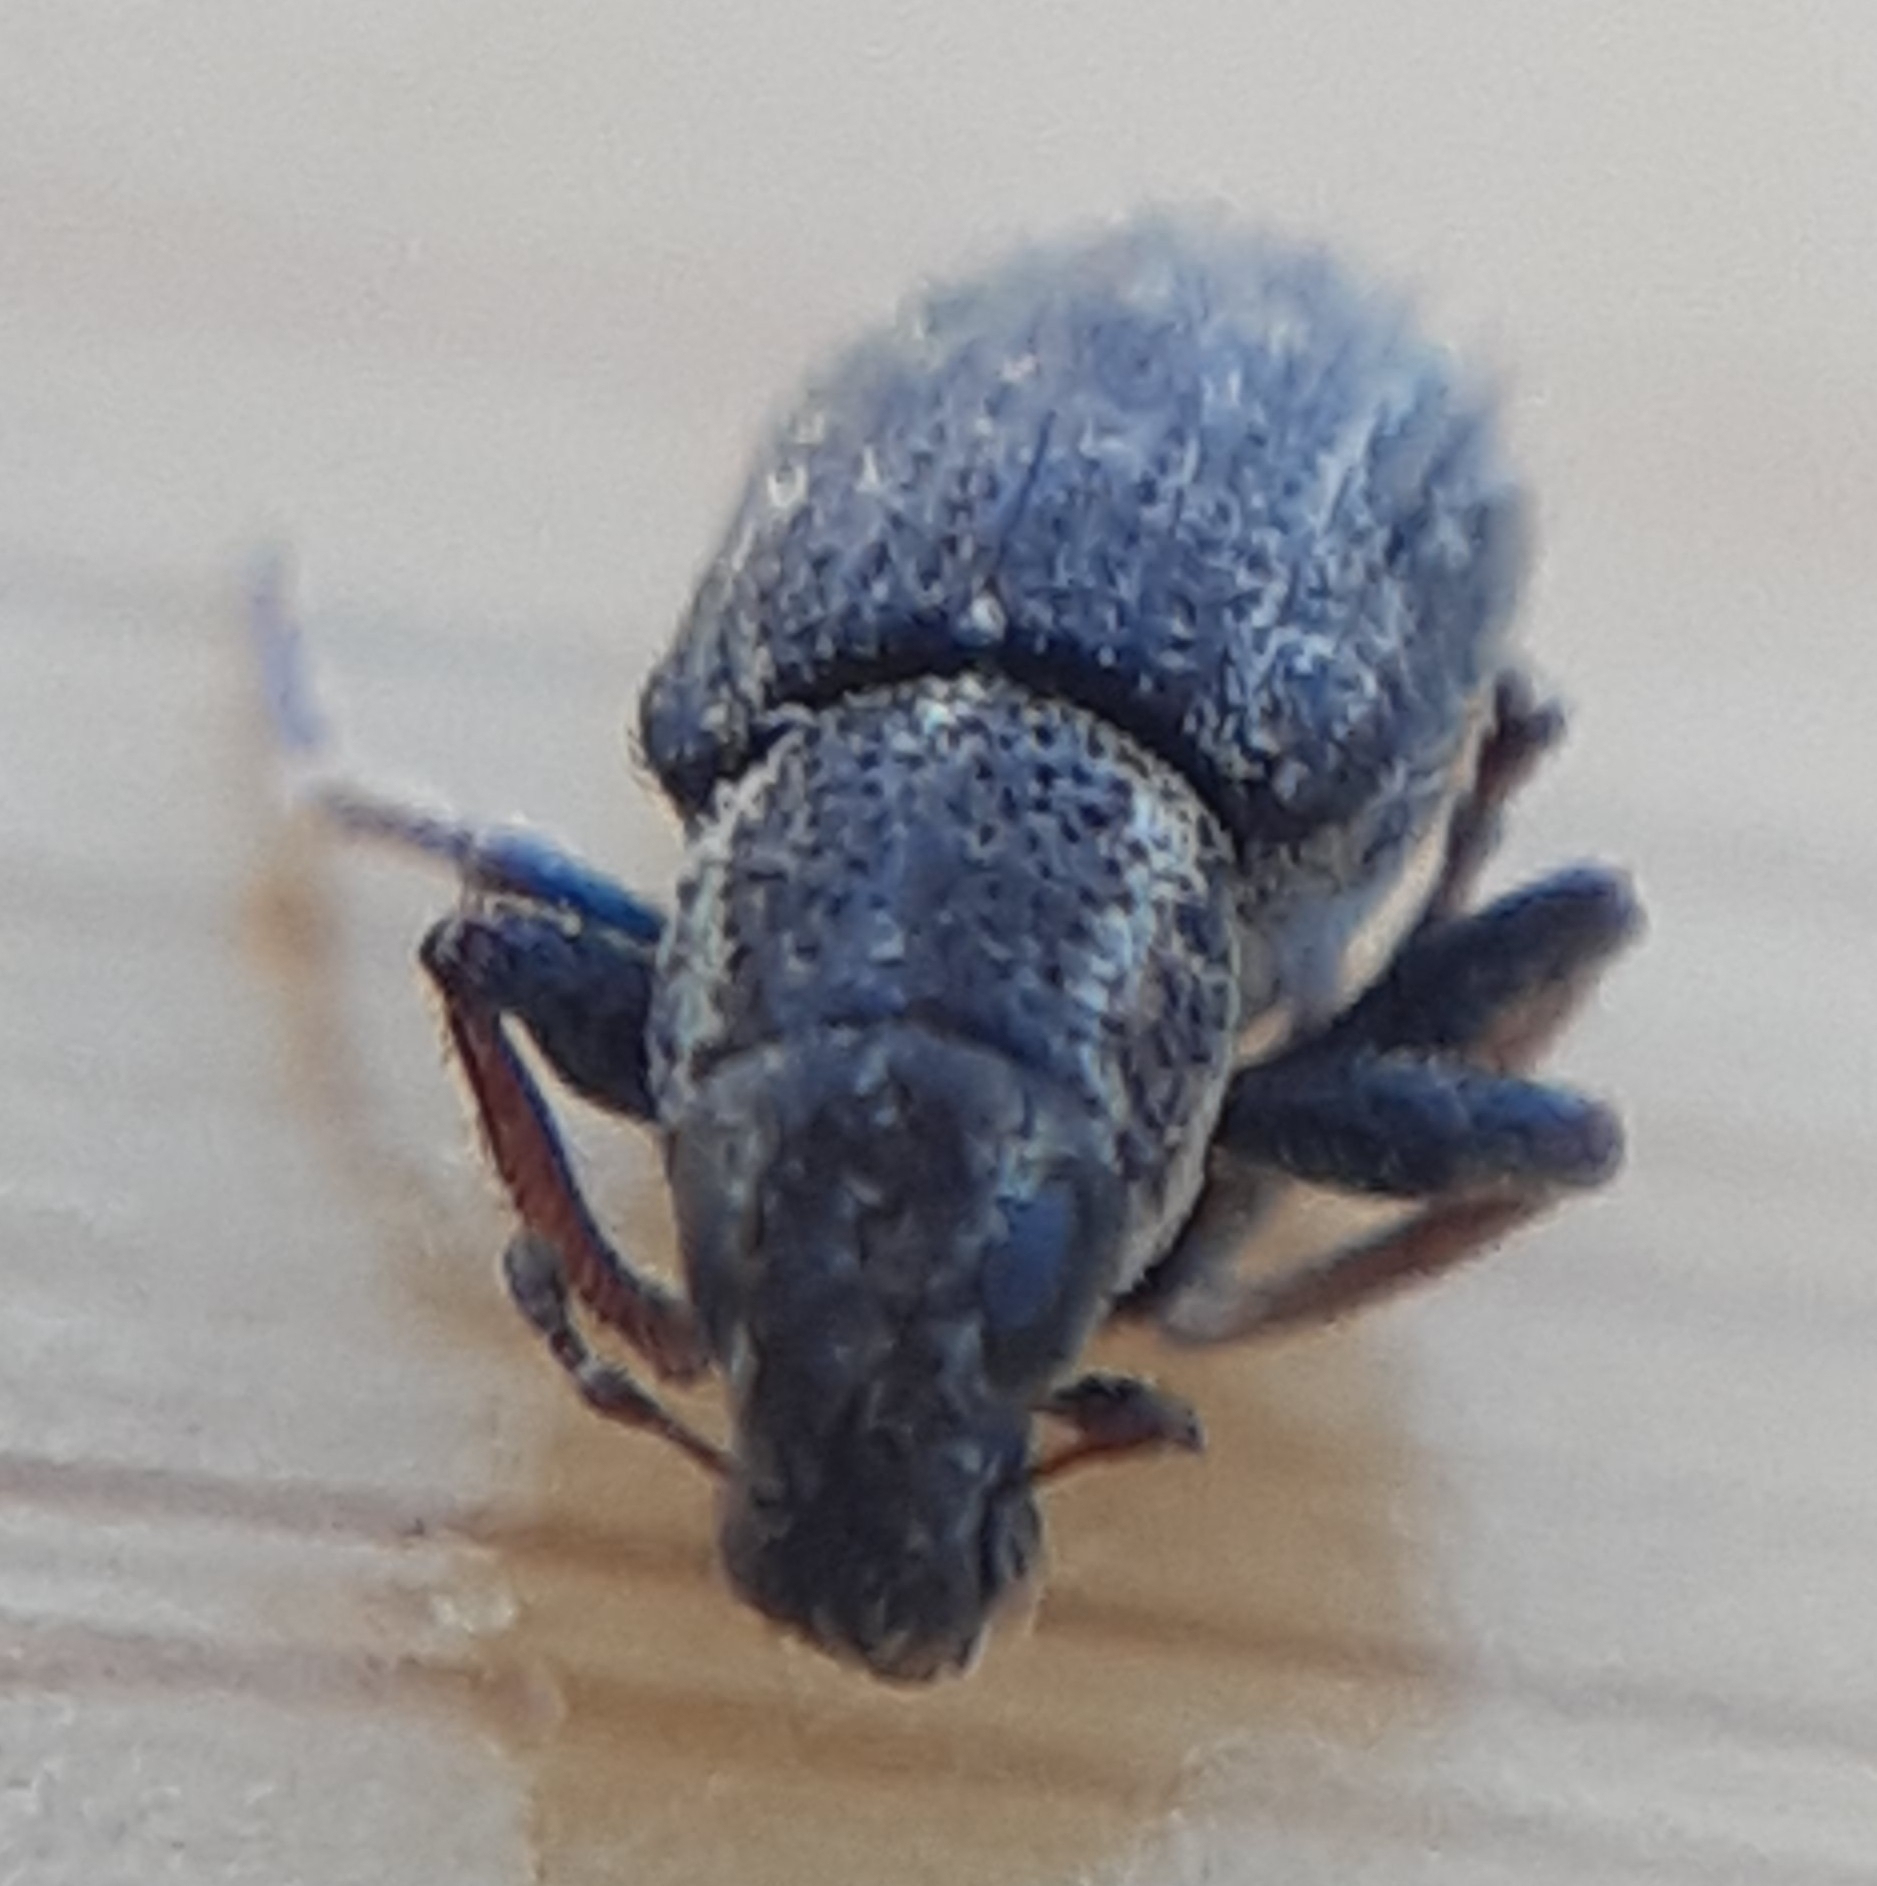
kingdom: Animalia
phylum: Arthropoda
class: Insecta
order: Coleoptera
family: Curculionidae
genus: Sitona
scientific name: Sitona hispidulus
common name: Clover weevil
